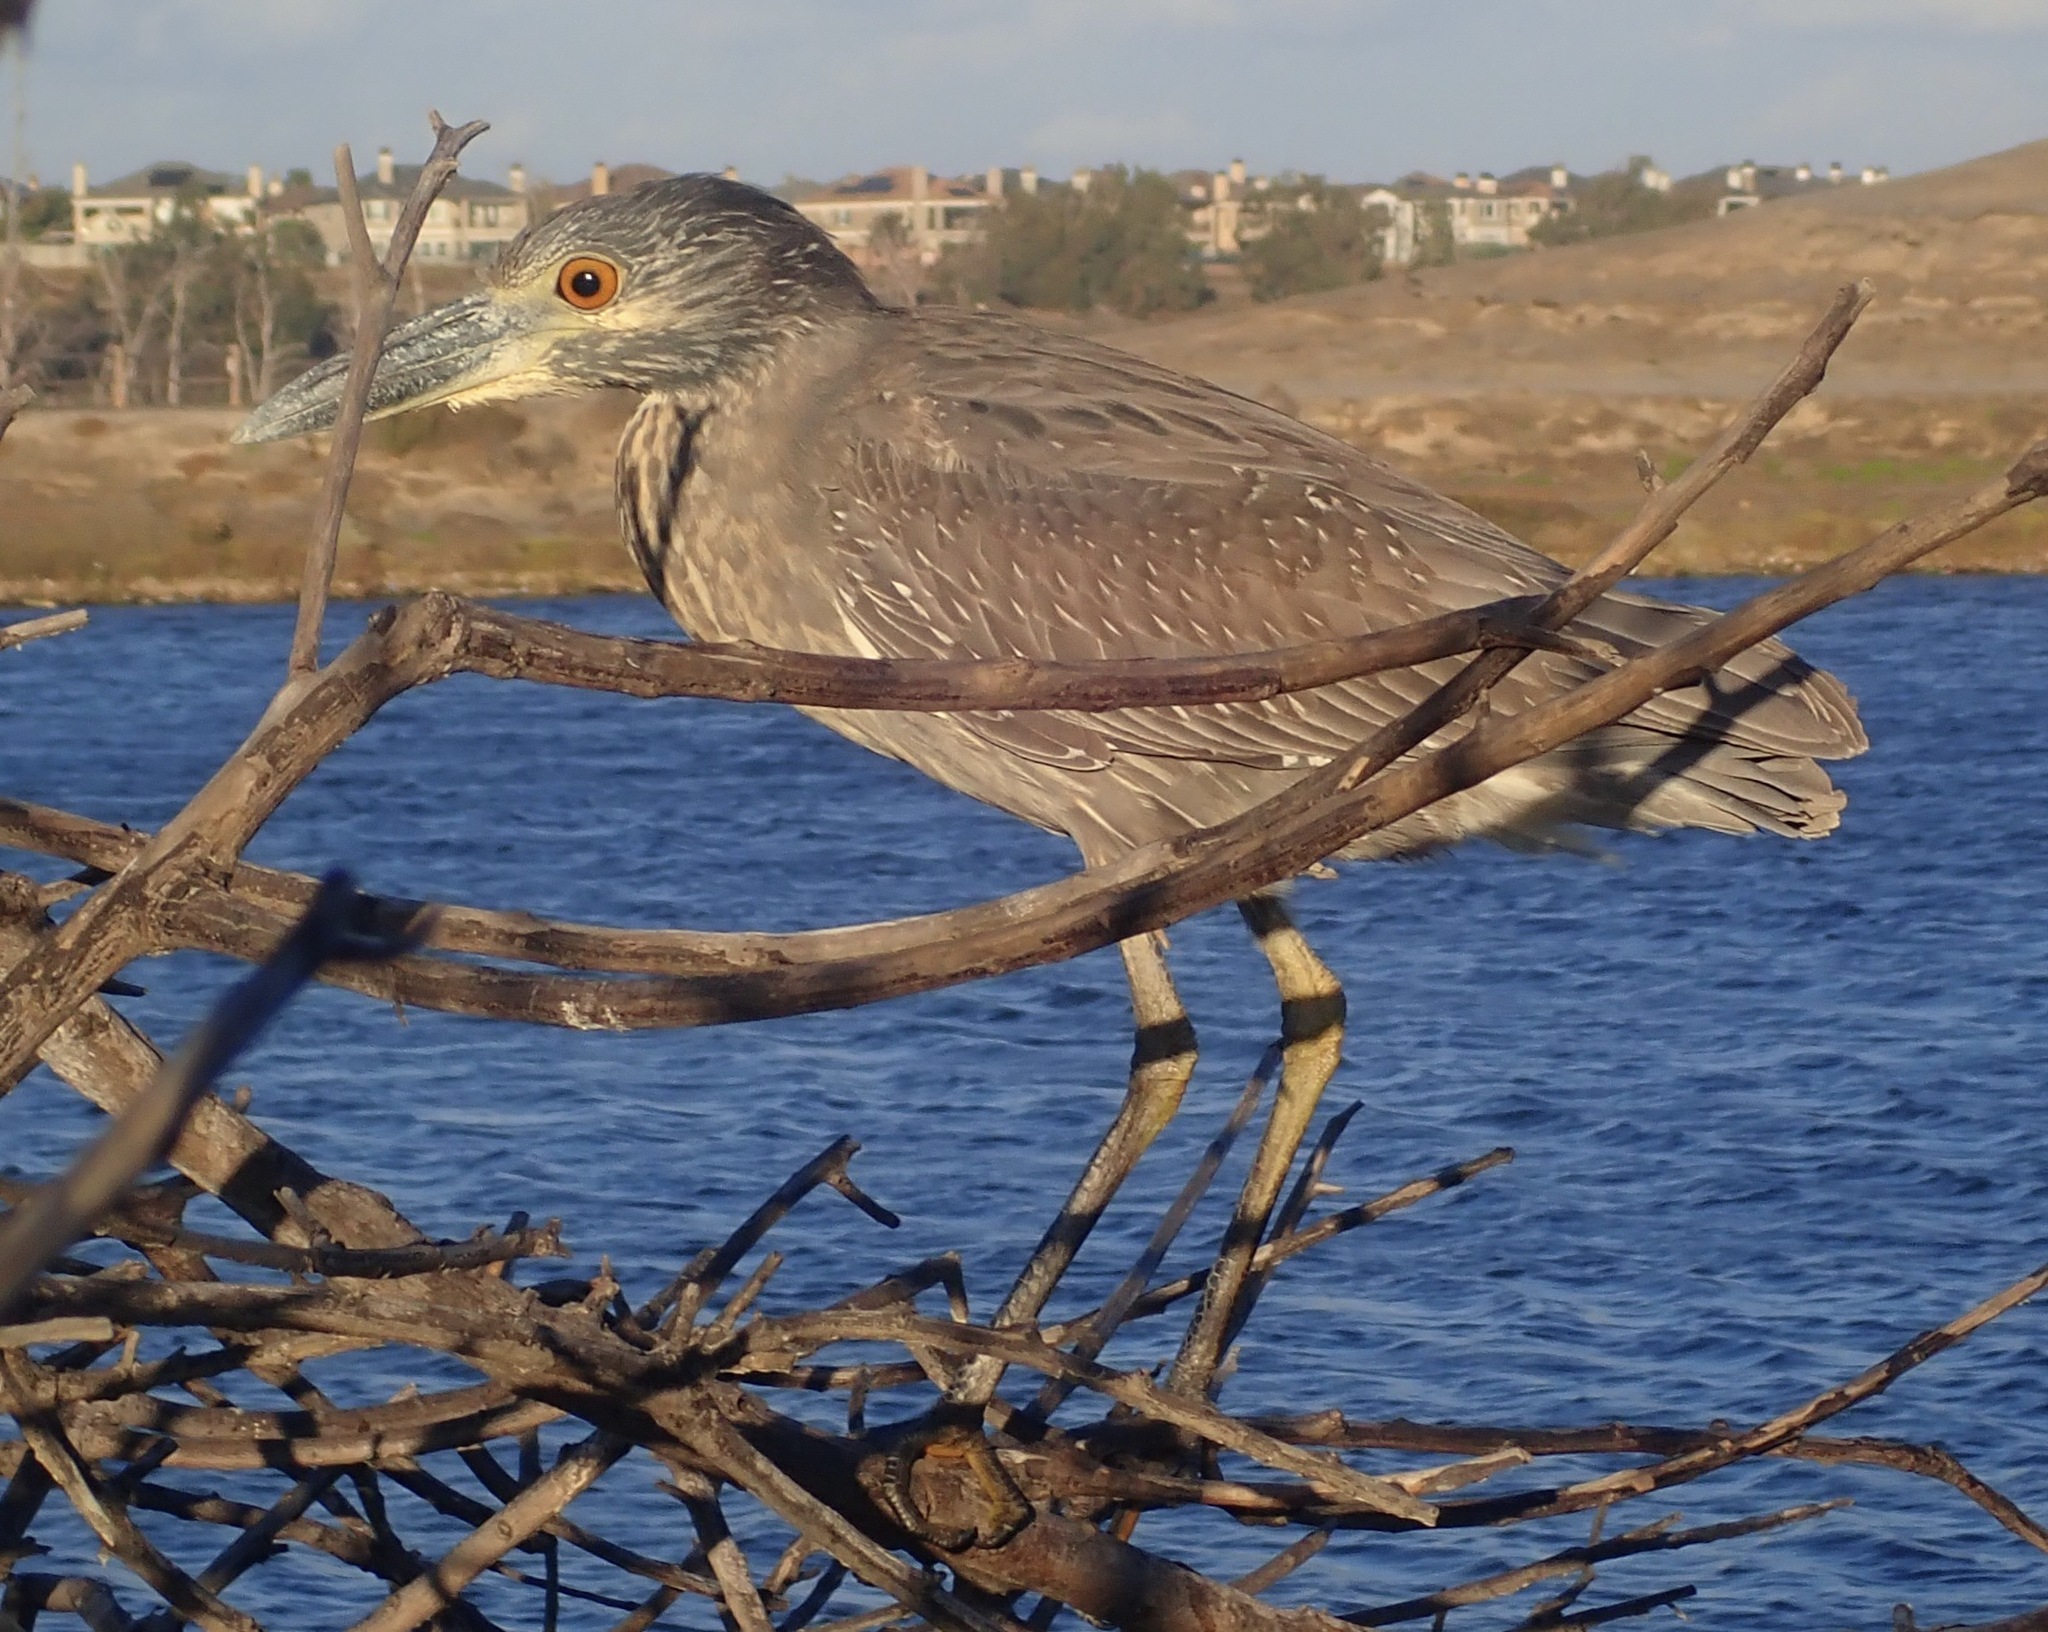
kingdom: Animalia
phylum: Chordata
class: Aves
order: Pelecaniformes
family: Ardeidae
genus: Nyctanassa
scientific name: Nyctanassa violacea
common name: Yellow-crowned night heron
